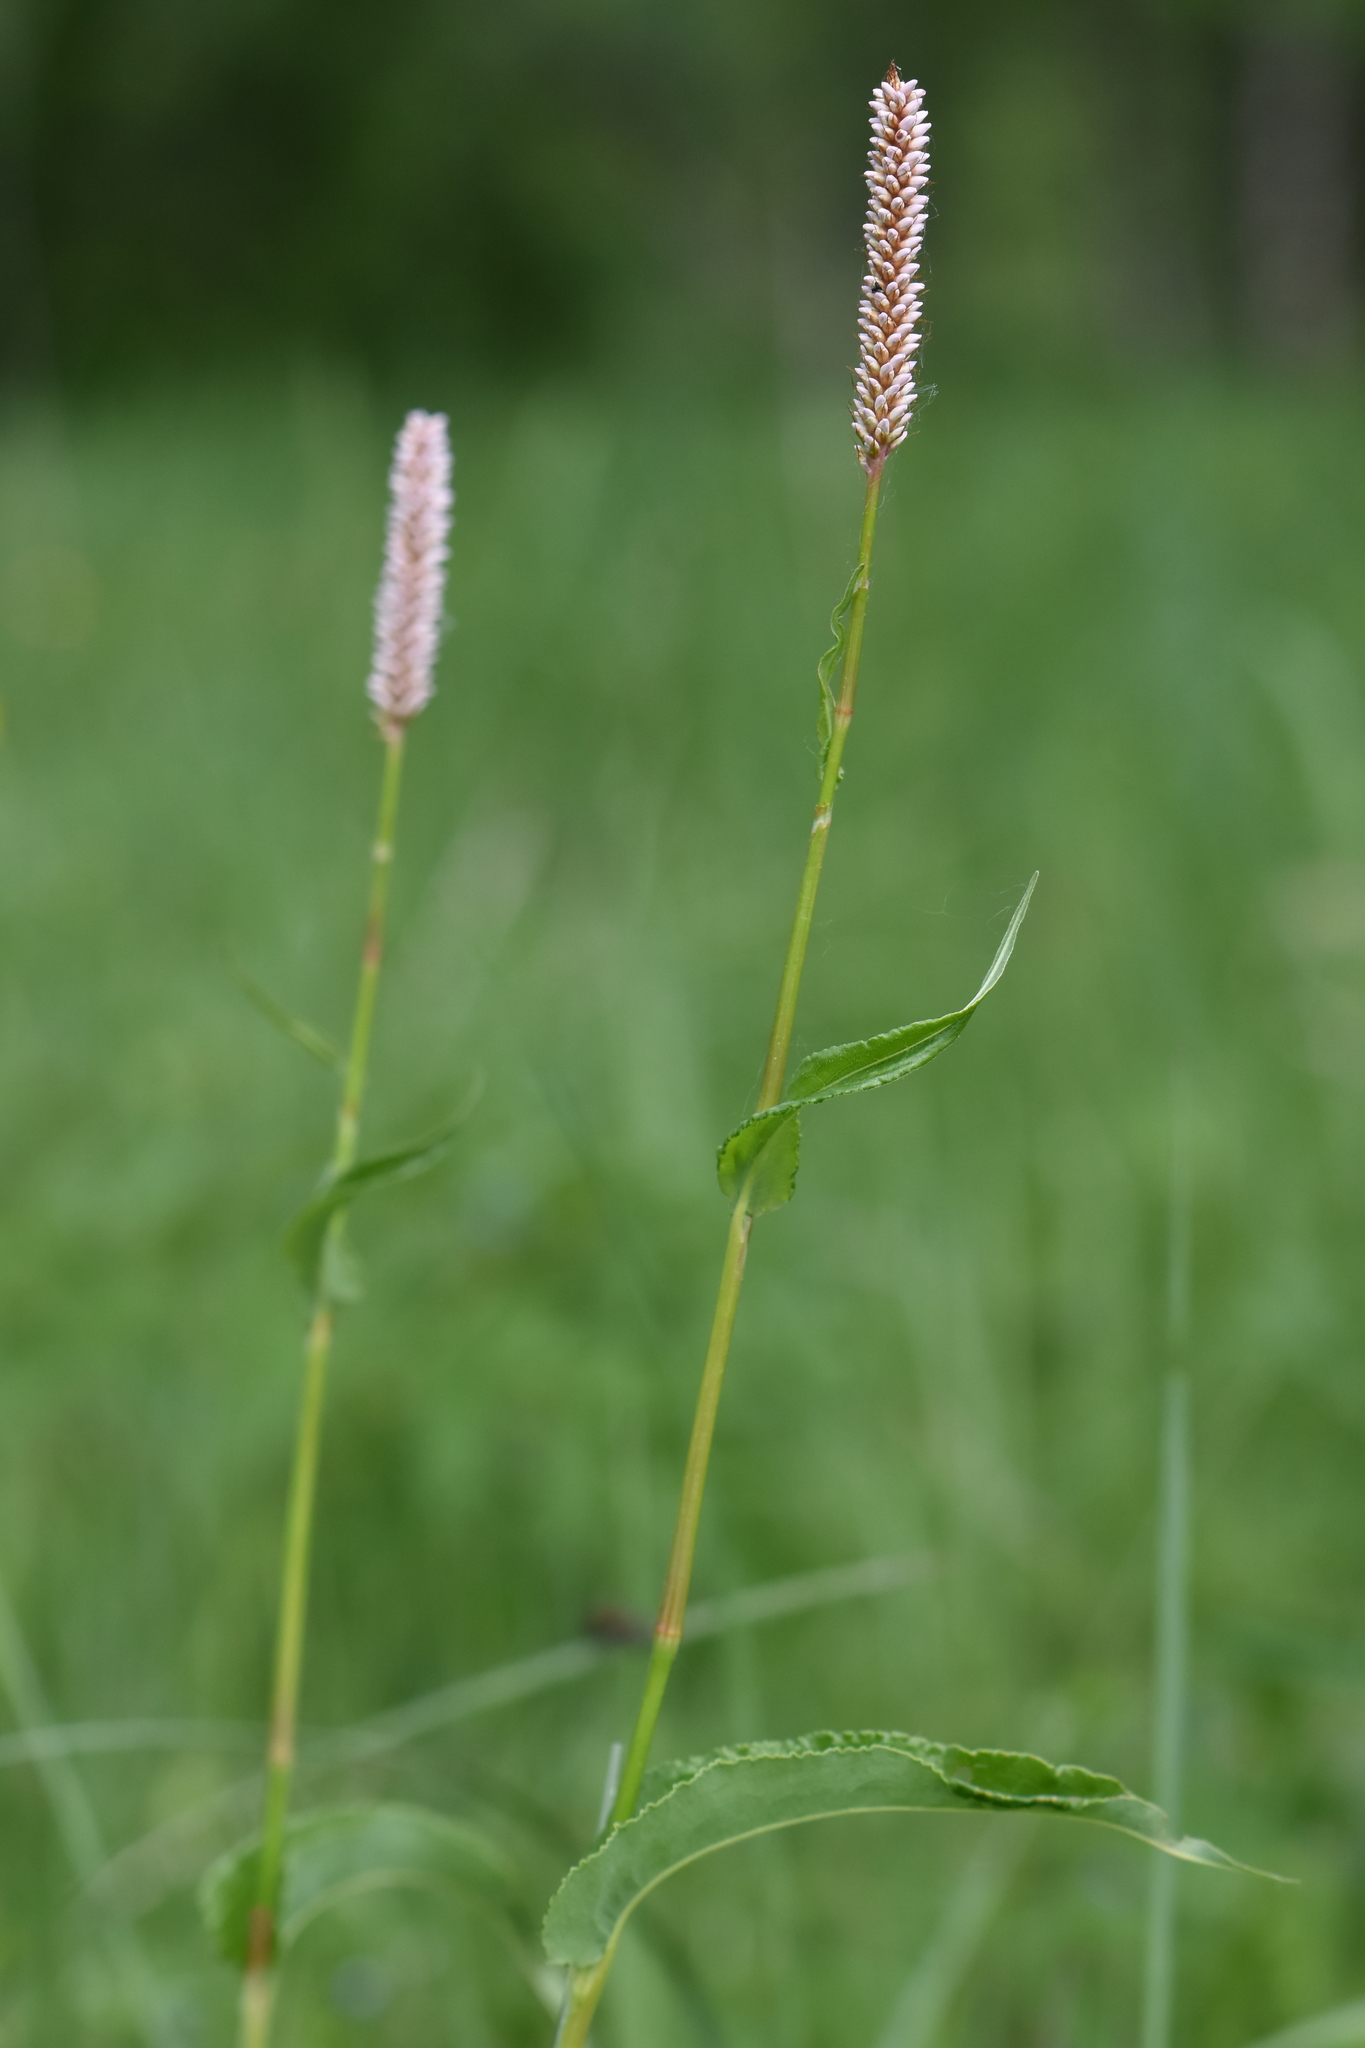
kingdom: Plantae
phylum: Tracheophyta
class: Magnoliopsida
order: Caryophyllales
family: Polygonaceae
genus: Bistorta
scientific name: Bistorta officinalis
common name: Common bistort
